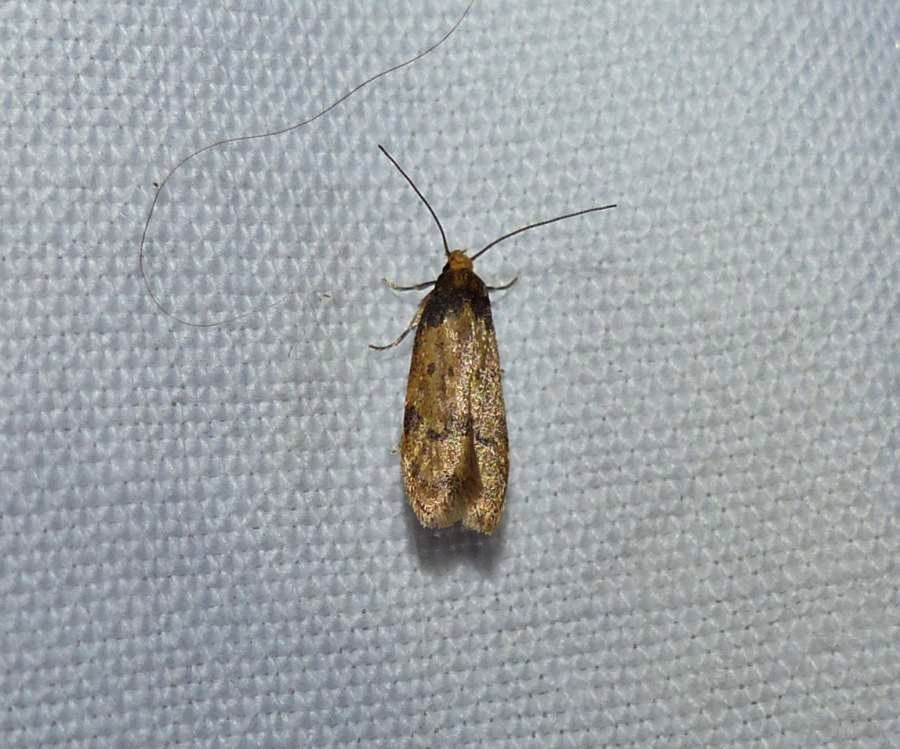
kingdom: Animalia
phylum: Arthropoda
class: Insecta
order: Lepidoptera
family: Autostichidae
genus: Gerdana
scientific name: Gerdana caritella
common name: Gerdana moth
